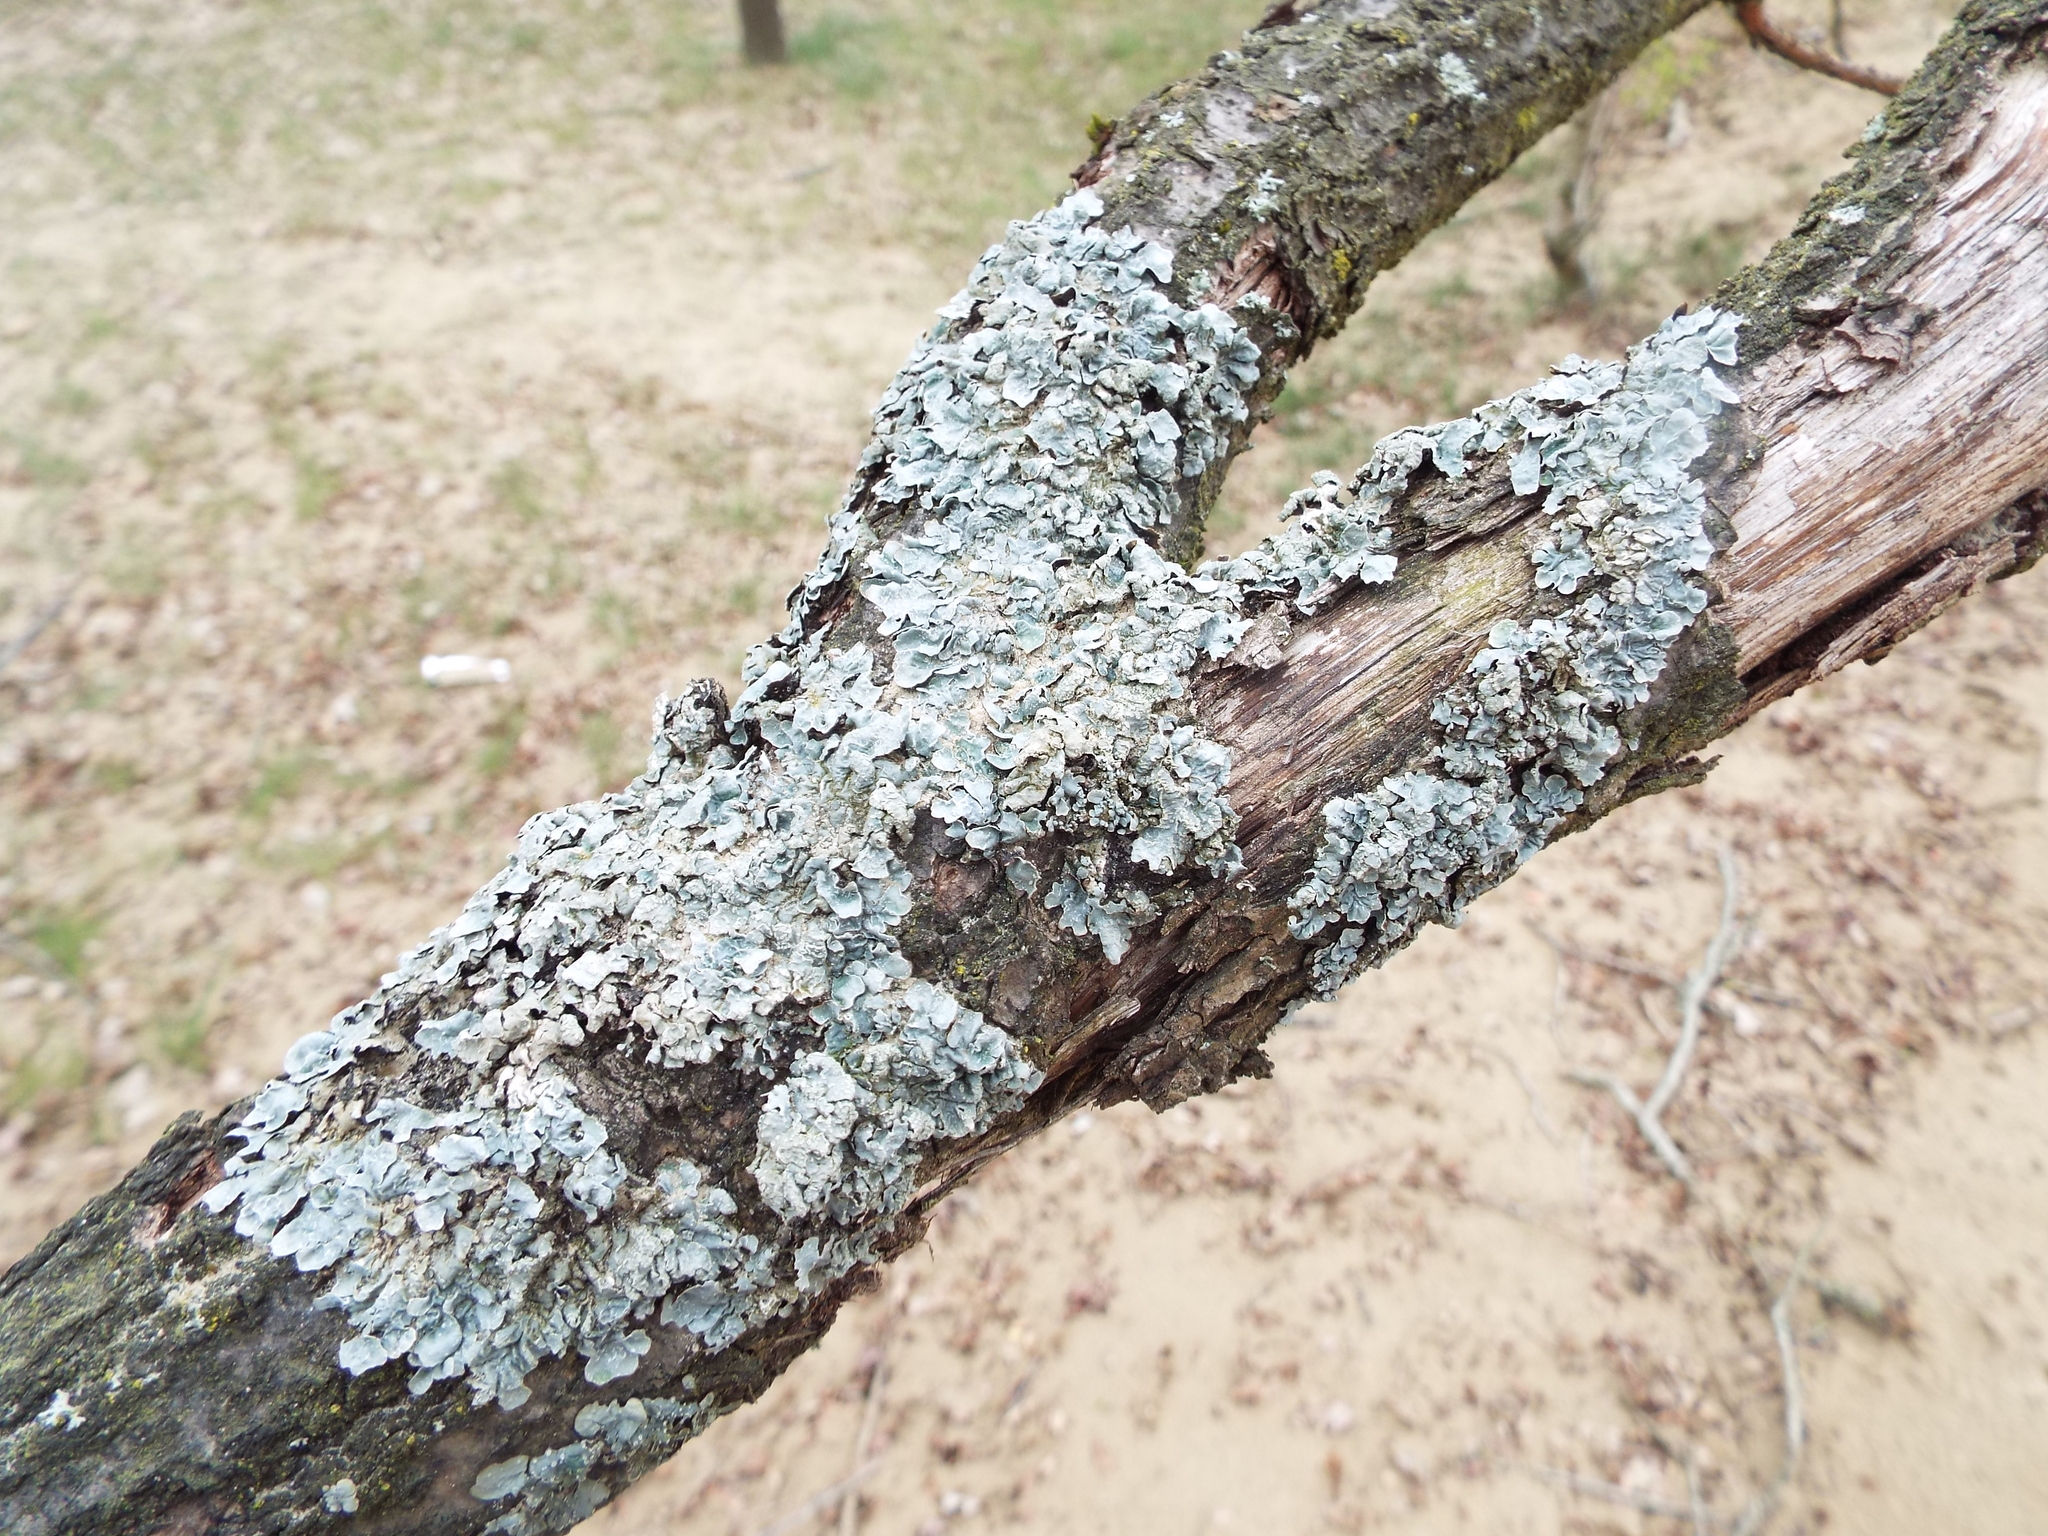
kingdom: Fungi
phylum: Ascomycota
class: Lecanoromycetes
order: Lecanorales
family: Parmeliaceae
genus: Parmelia
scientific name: Parmelia sulcata
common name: Netted shield lichen
